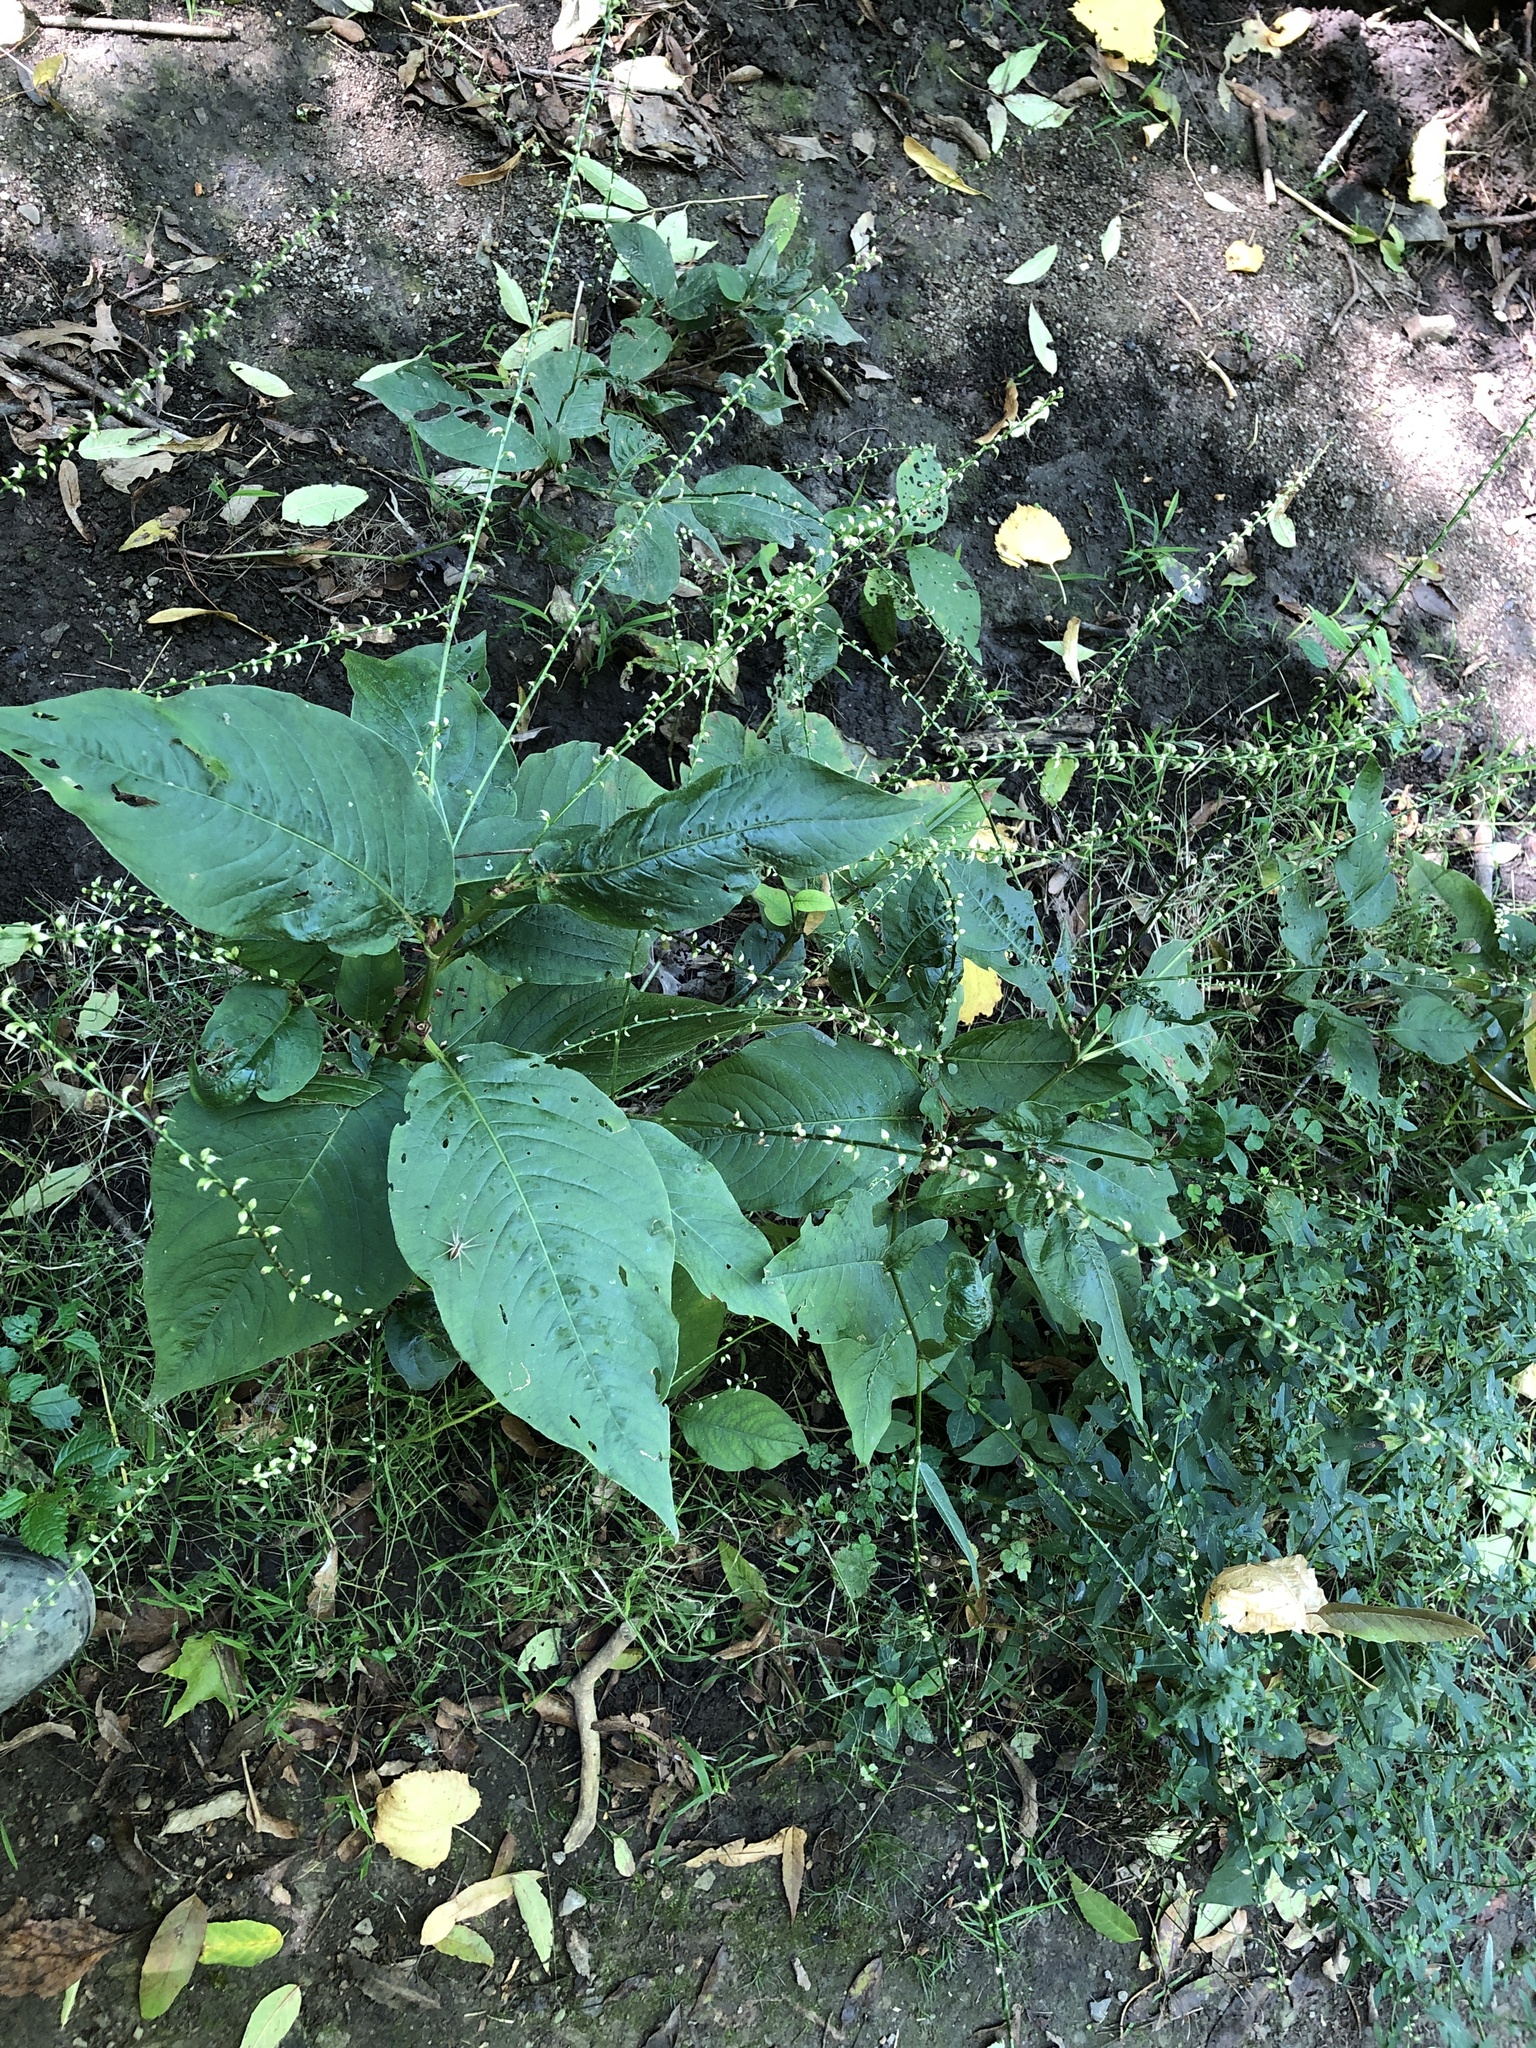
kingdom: Plantae
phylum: Tracheophyta
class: Magnoliopsida
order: Caryophyllales
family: Polygonaceae
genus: Persicaria
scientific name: Persicaria virginiana
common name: Jumpseed
